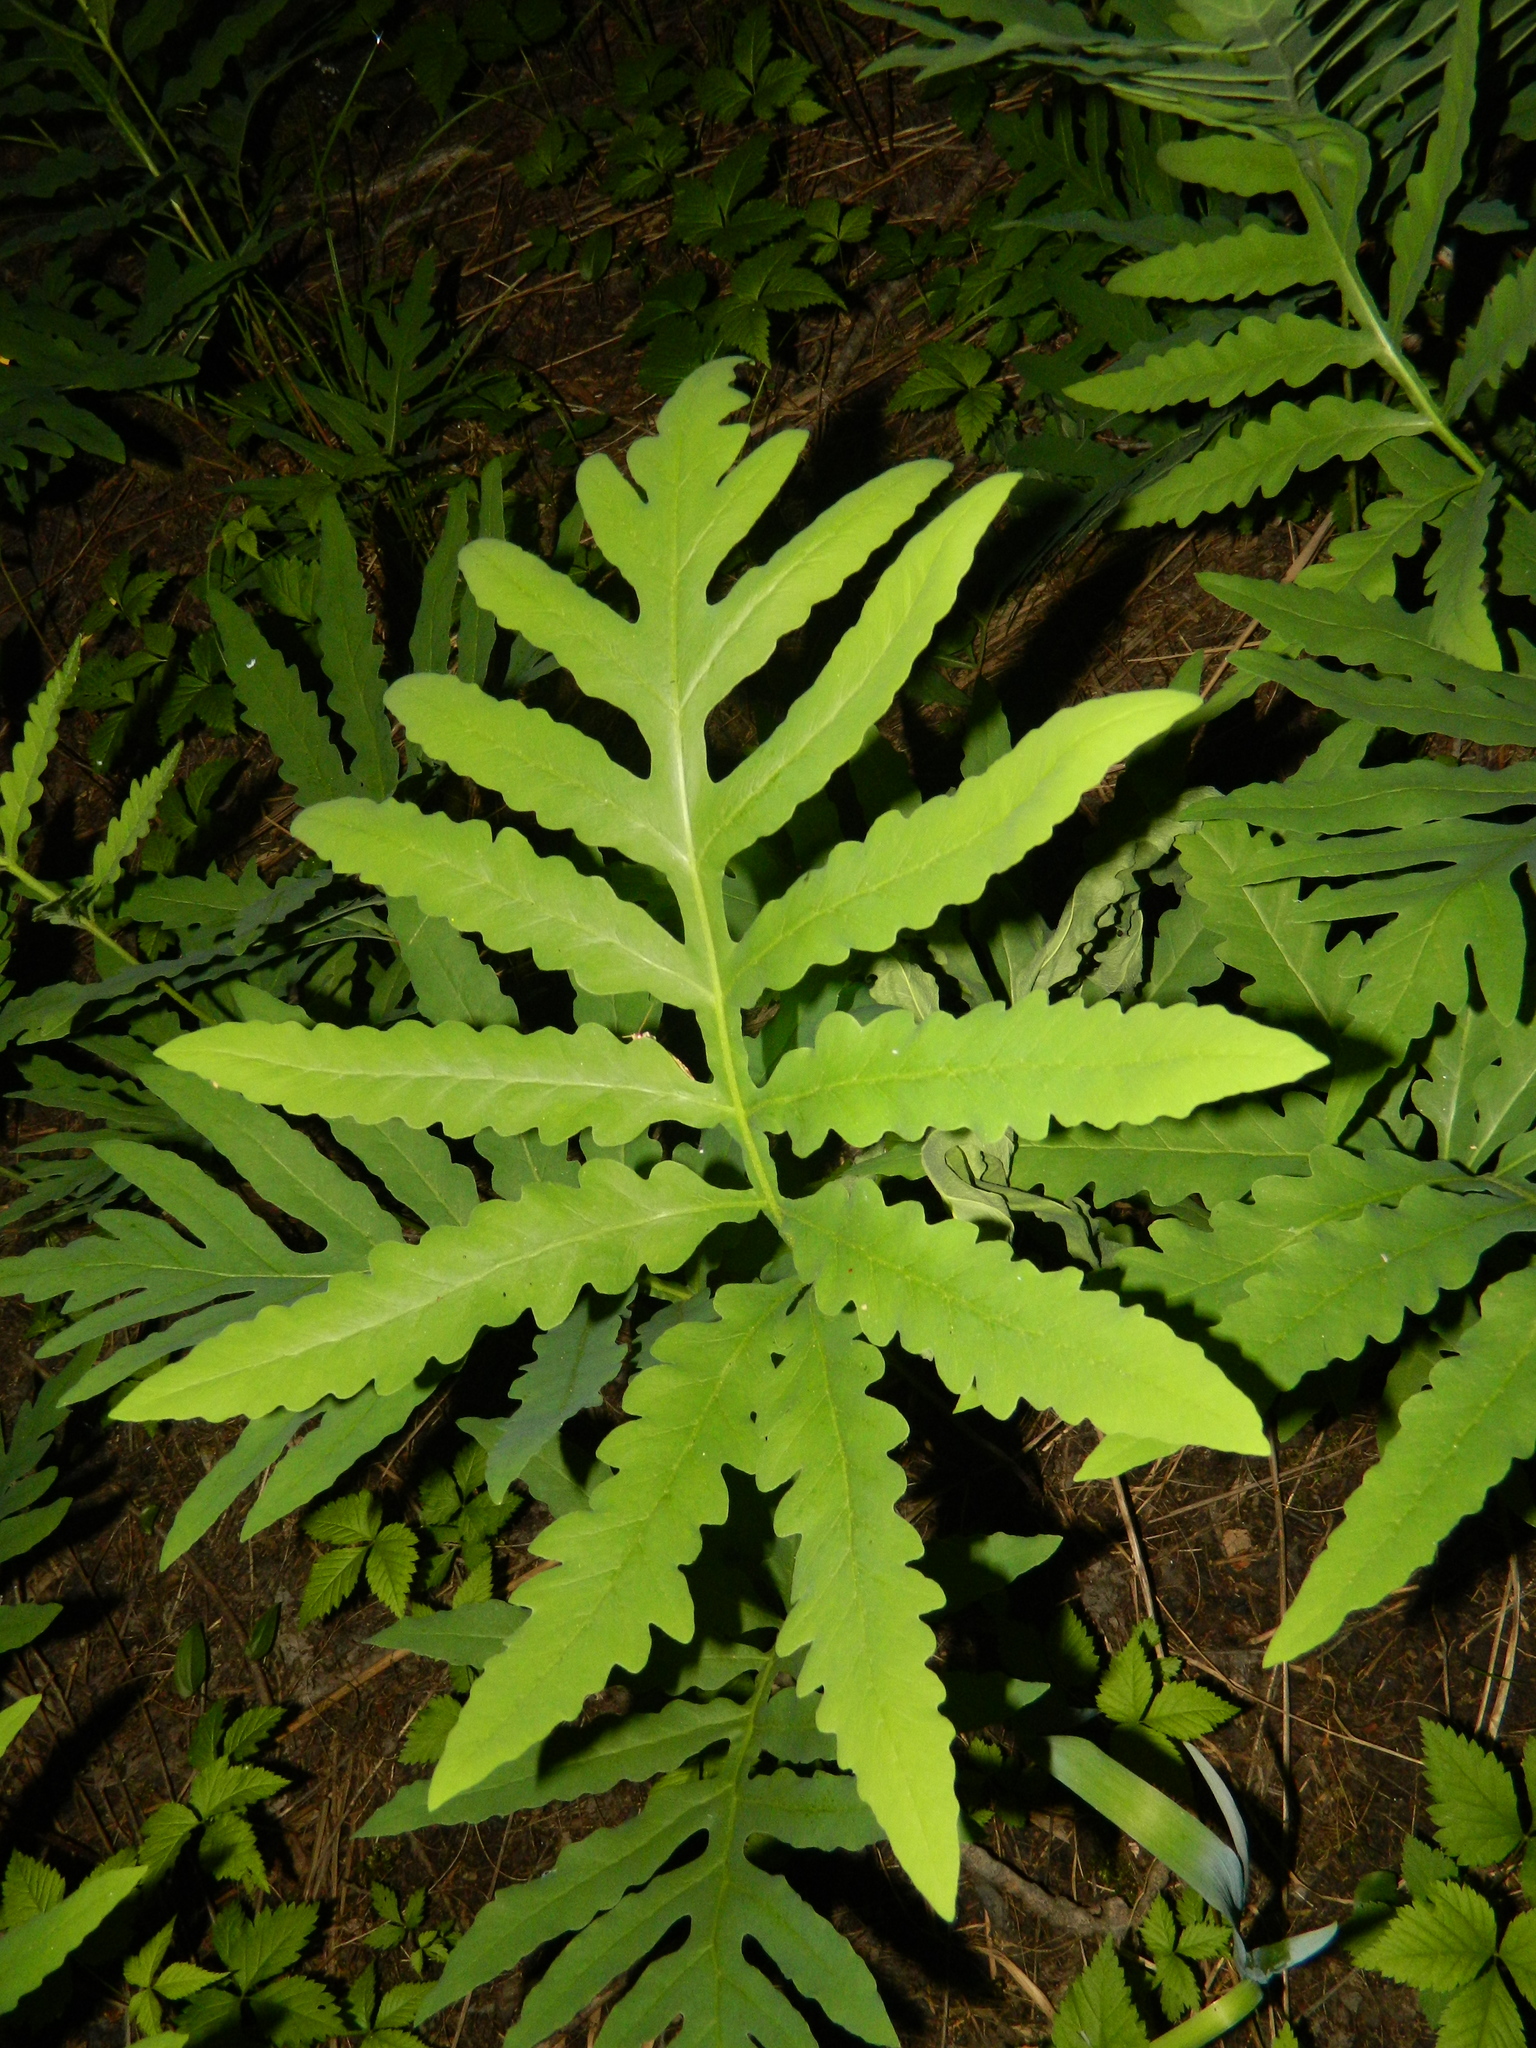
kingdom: Plantae
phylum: Tracheophyta
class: Polypodiopsida
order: Polypodiales
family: Onocleaceae
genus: Onoclea
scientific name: Onoclea sensibilis
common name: Sensitive fern
